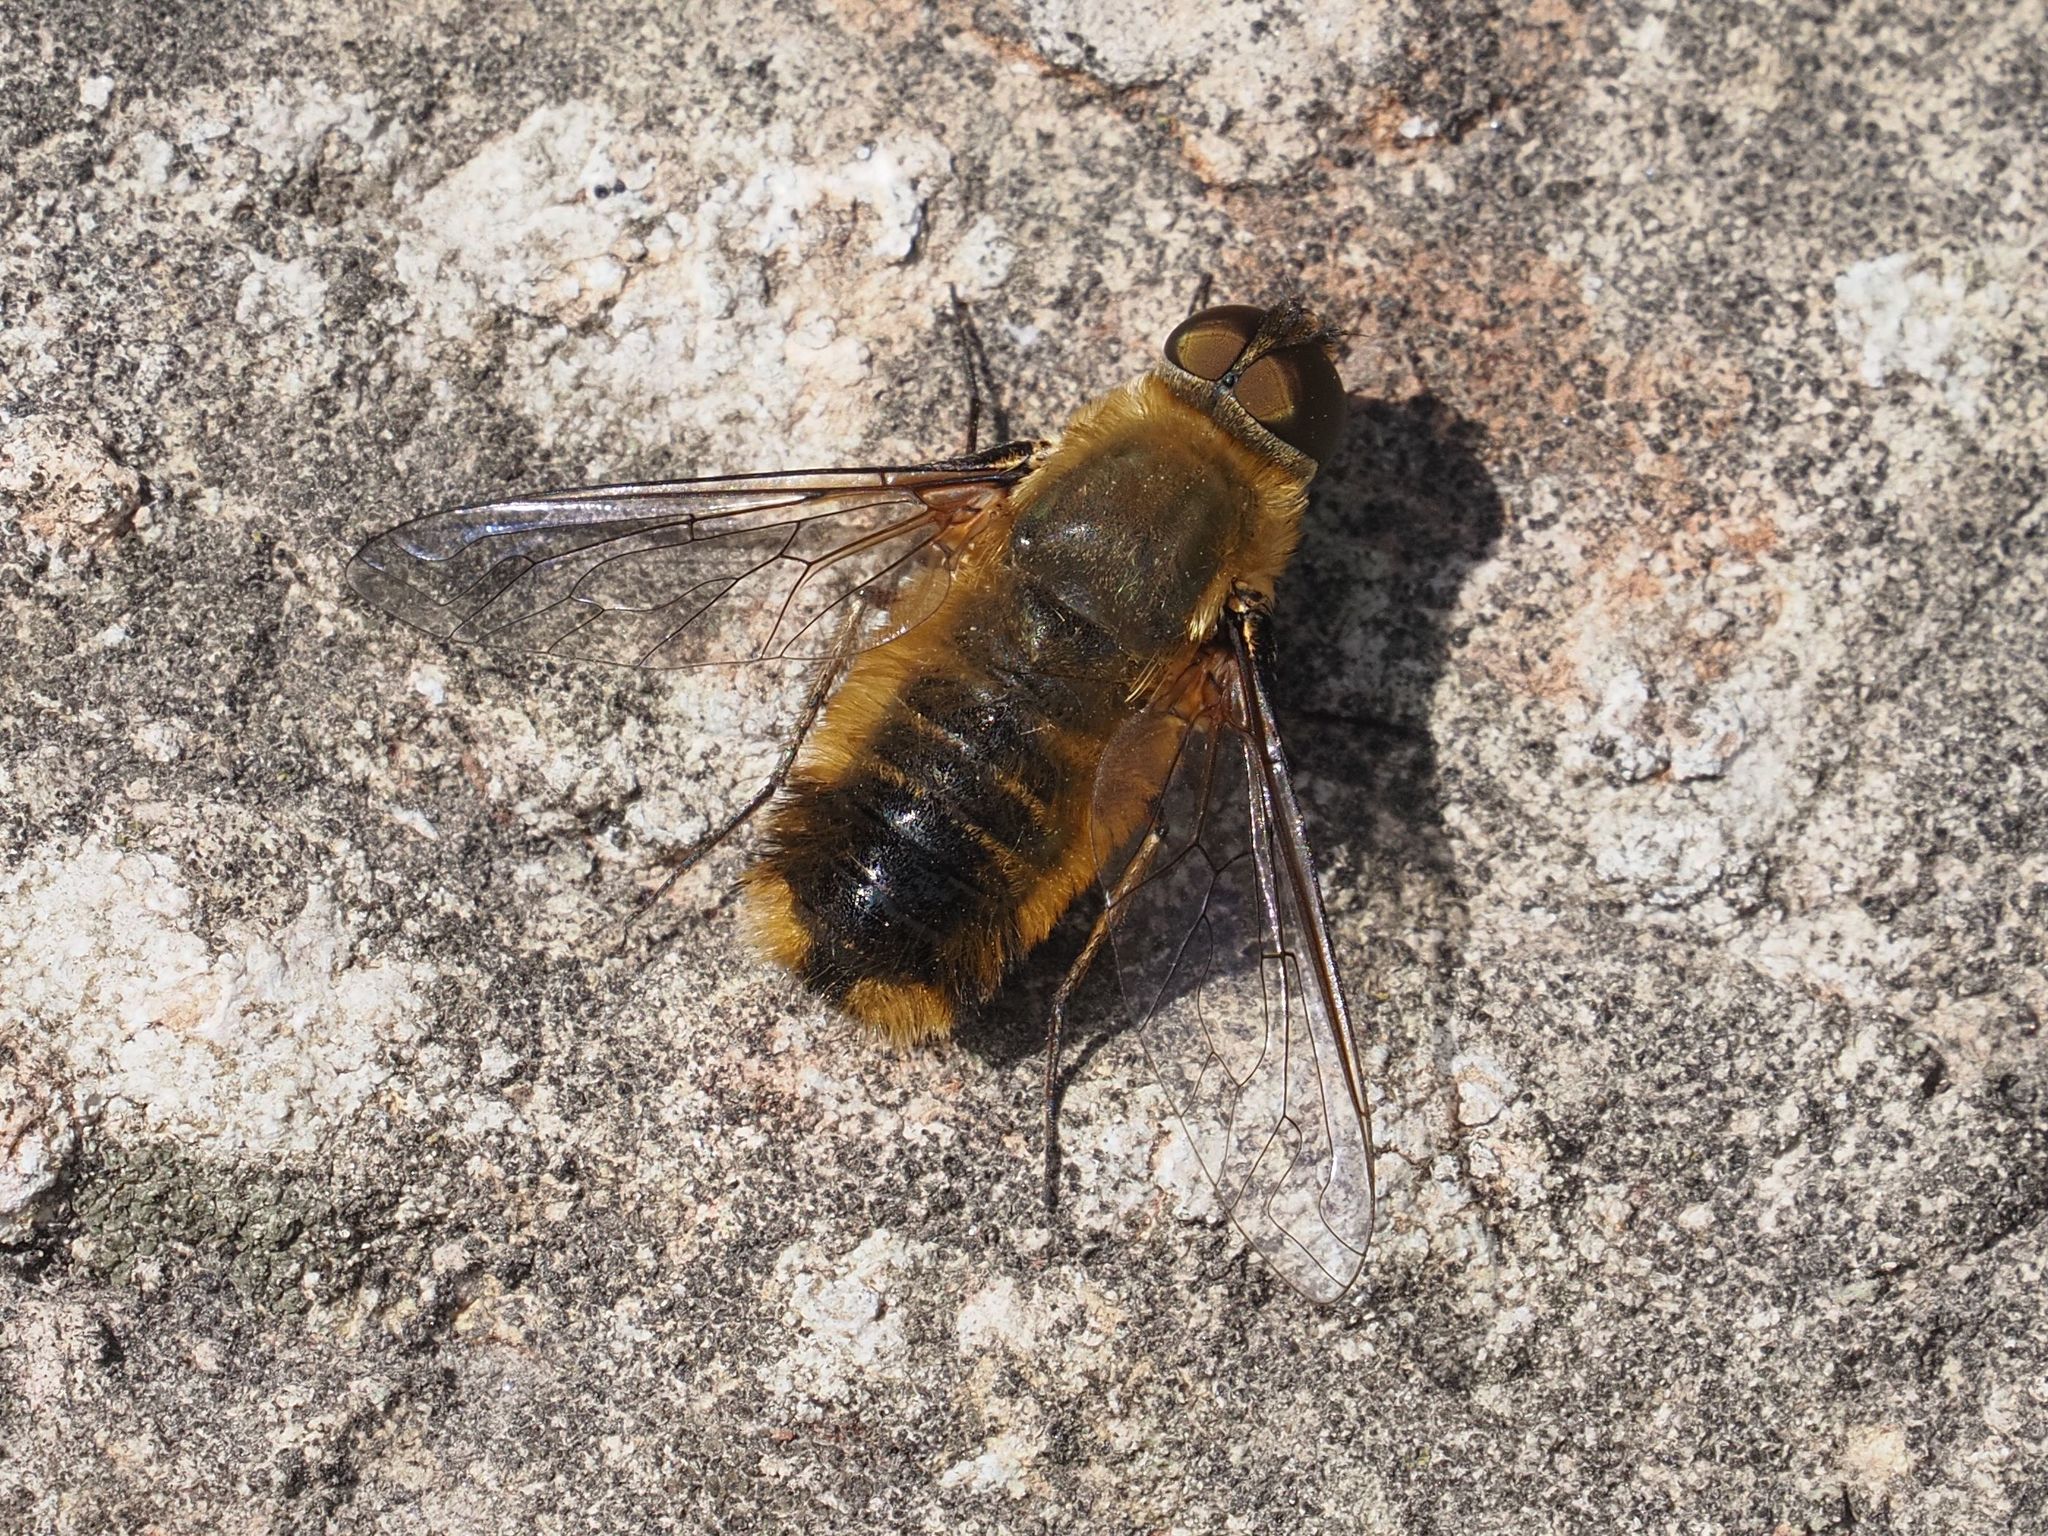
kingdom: Animalia
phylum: Arthropoda
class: Insecta
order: Diptera
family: Bombyliidae
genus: Villa
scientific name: Villa hottentotta
